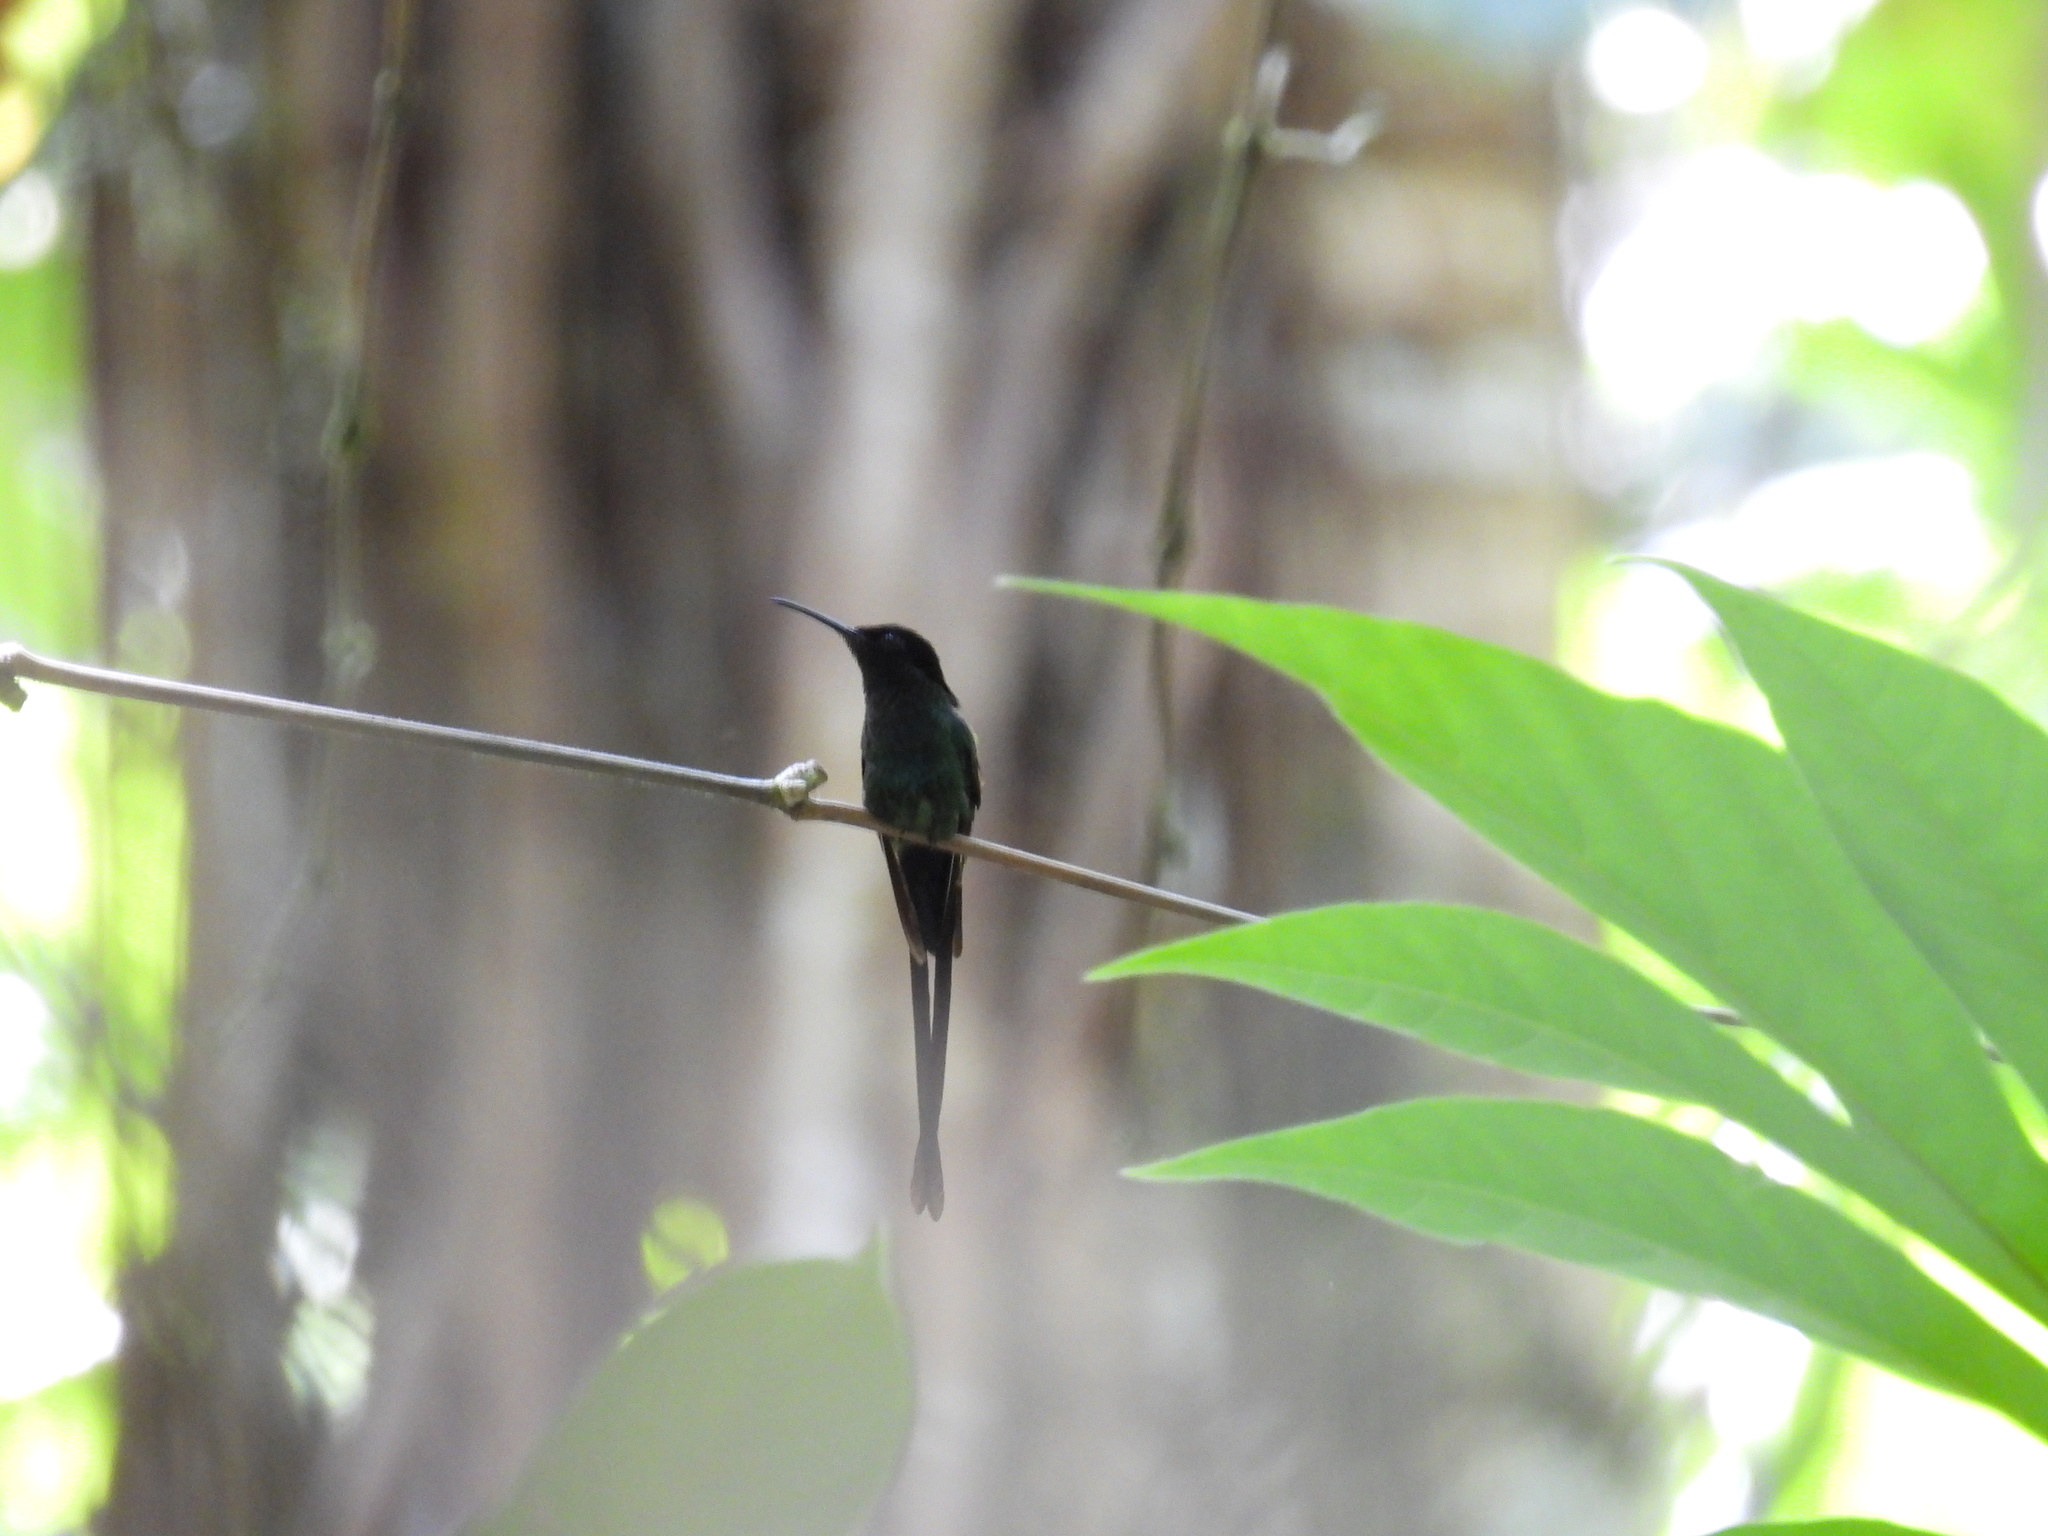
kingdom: Animalia
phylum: Chordata
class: Aves
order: Apodiformes
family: Trochilidae
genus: Trochilus
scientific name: Trochilus scitulus
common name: Black-billed streamertail
